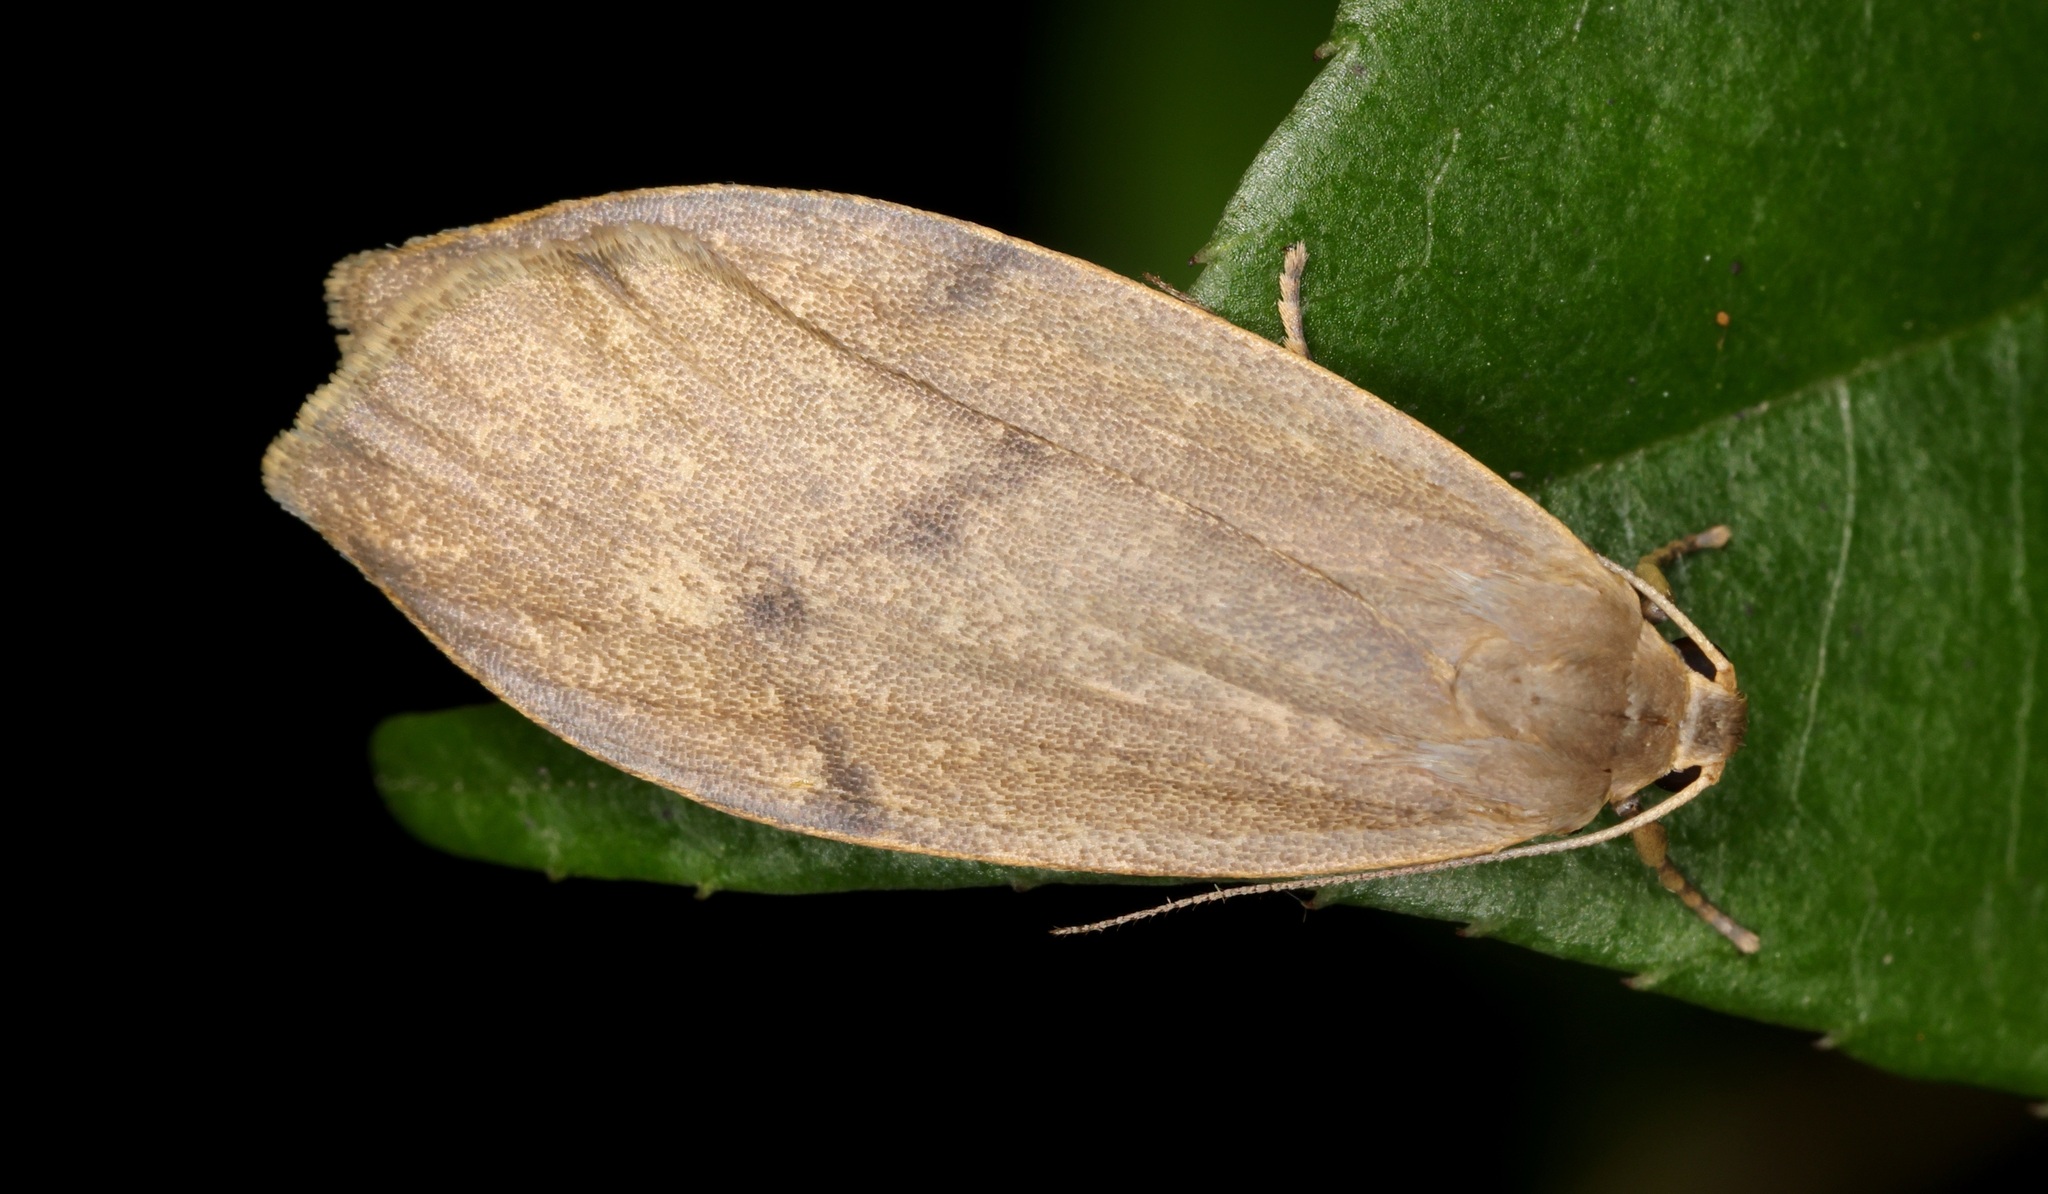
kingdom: Animalia
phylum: Arthropoda
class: Insecta
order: Lepidoptera
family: Erebidae
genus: Gampola
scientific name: Gampola sinica
